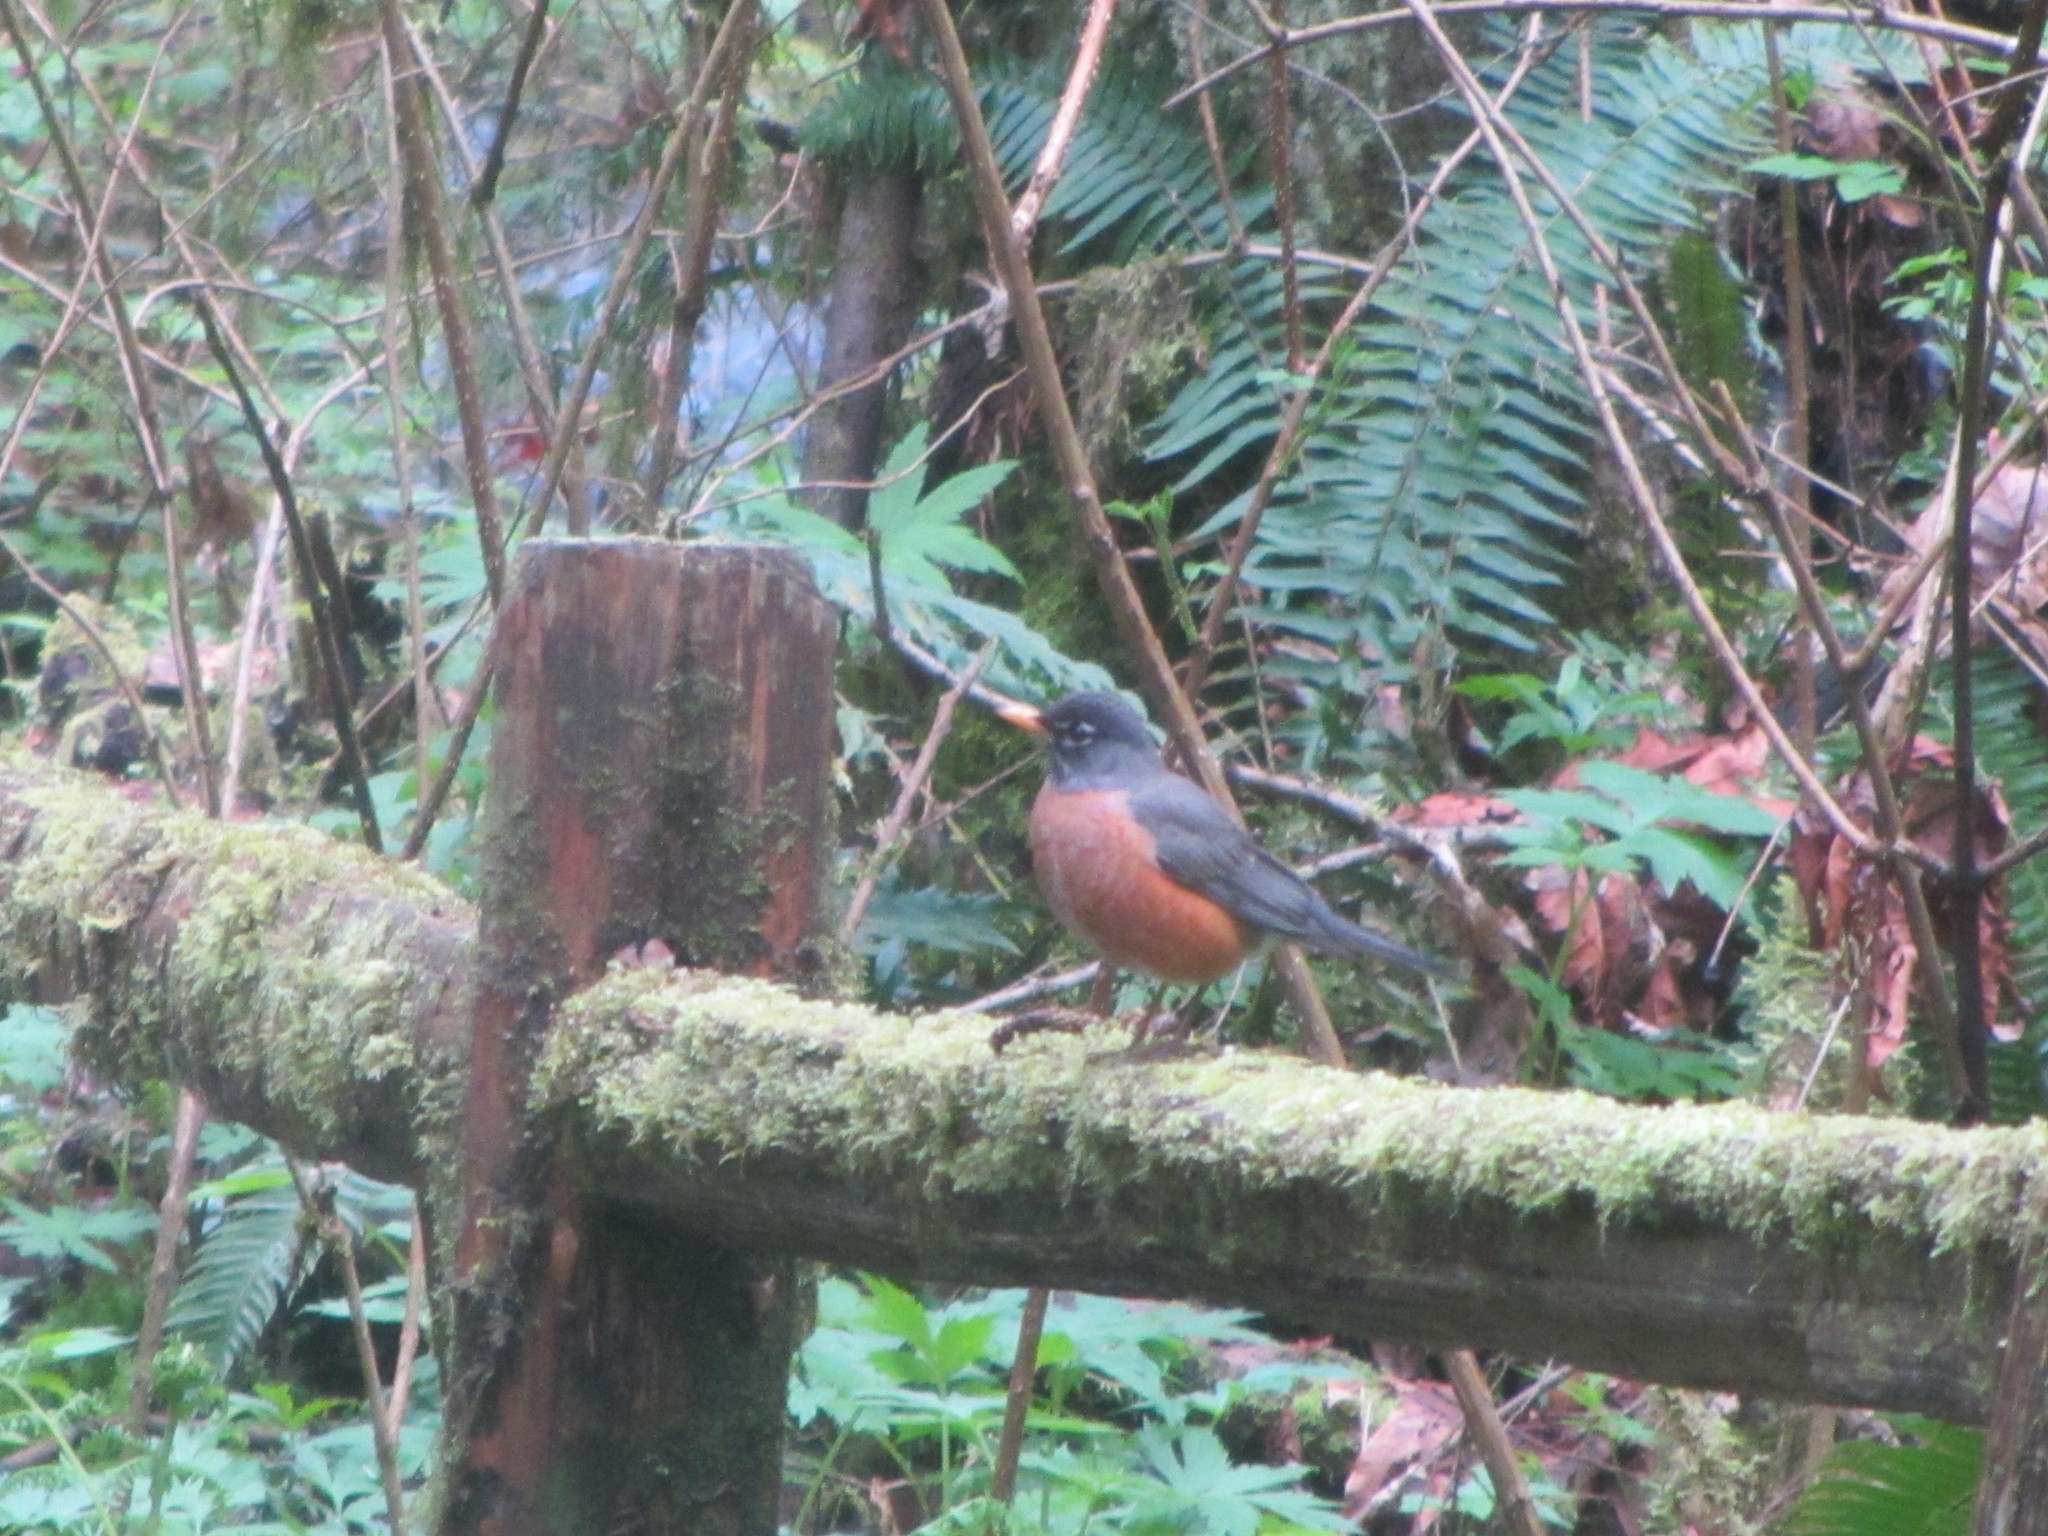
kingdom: Animalia
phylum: Chordata
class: Aves
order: Passeriformes
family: Turdidae
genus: Turdus
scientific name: Turdus migratorius
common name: American robin
